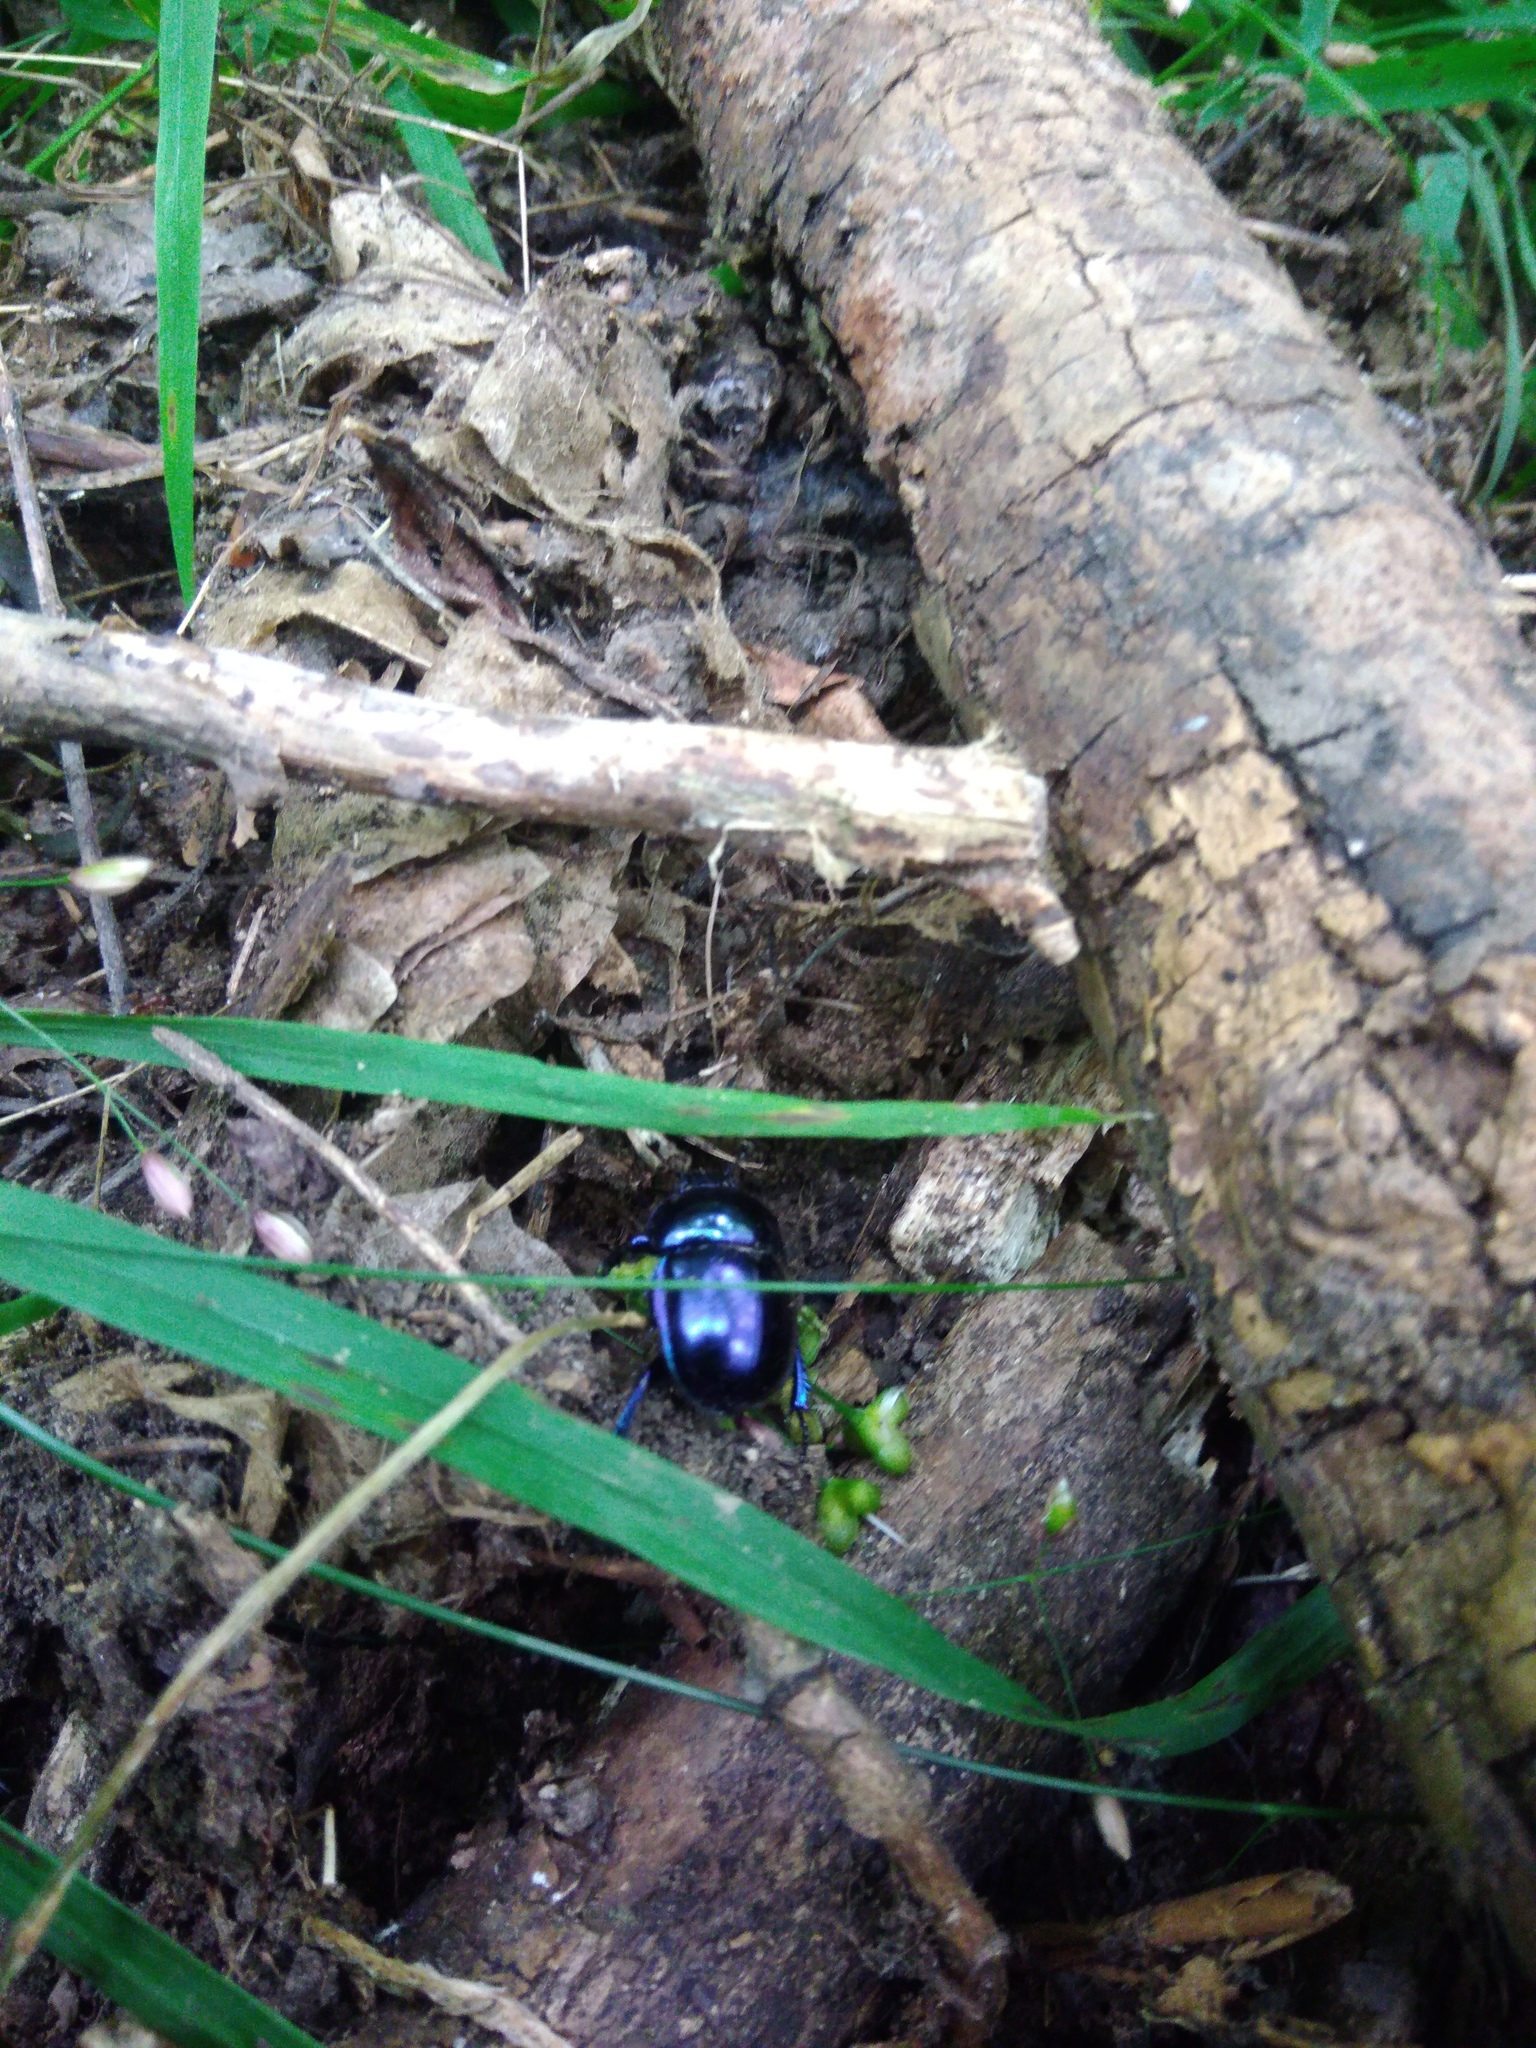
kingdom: Animalia
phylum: Arthropoda
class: Insecta
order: Coleoptera
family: Geotrupidae
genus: Trypocopris
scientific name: Trypocopris vernalis
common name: Spring dumbledor
